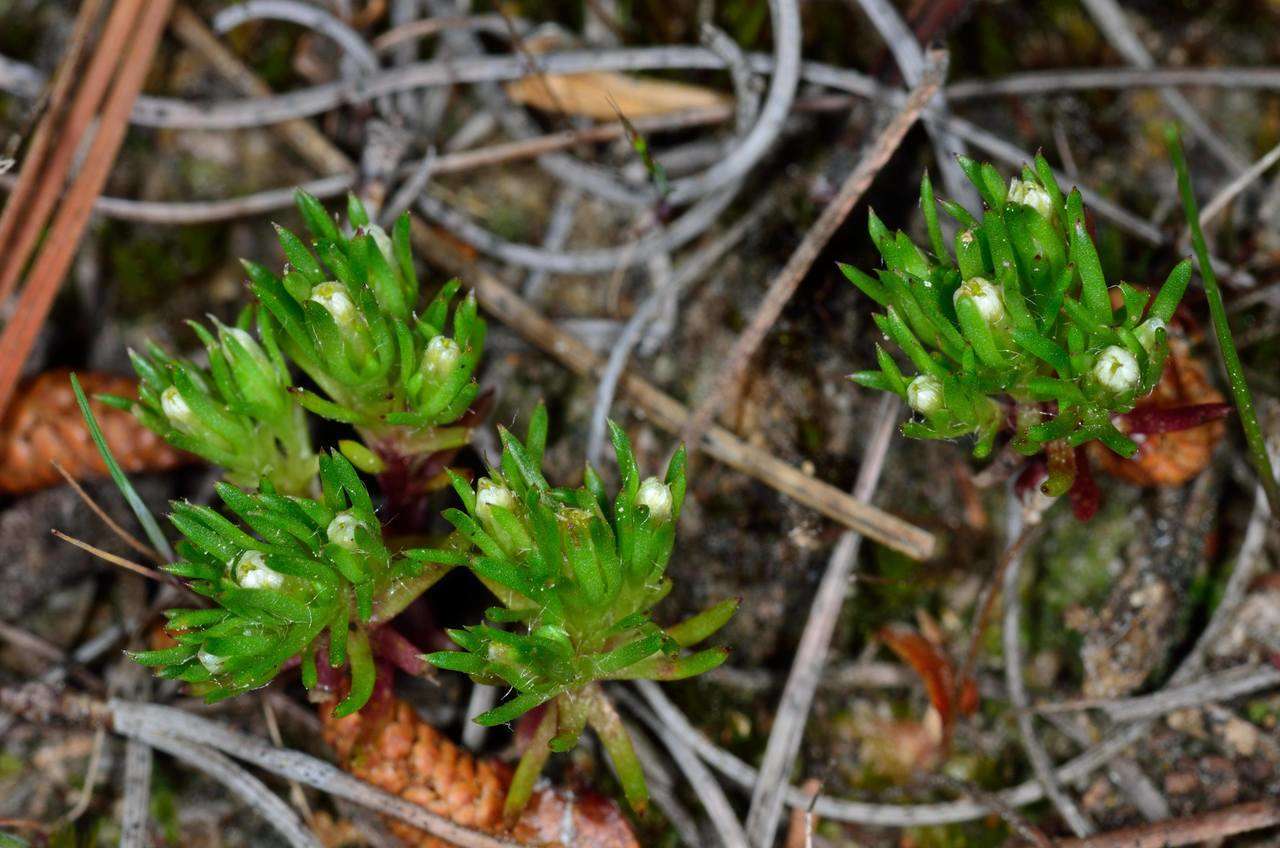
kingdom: Plantae
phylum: Tracheophyta
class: Magnoliopsida
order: Asterales
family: Asteraceae
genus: Hyalosperma
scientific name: Hyalosperma demissum
